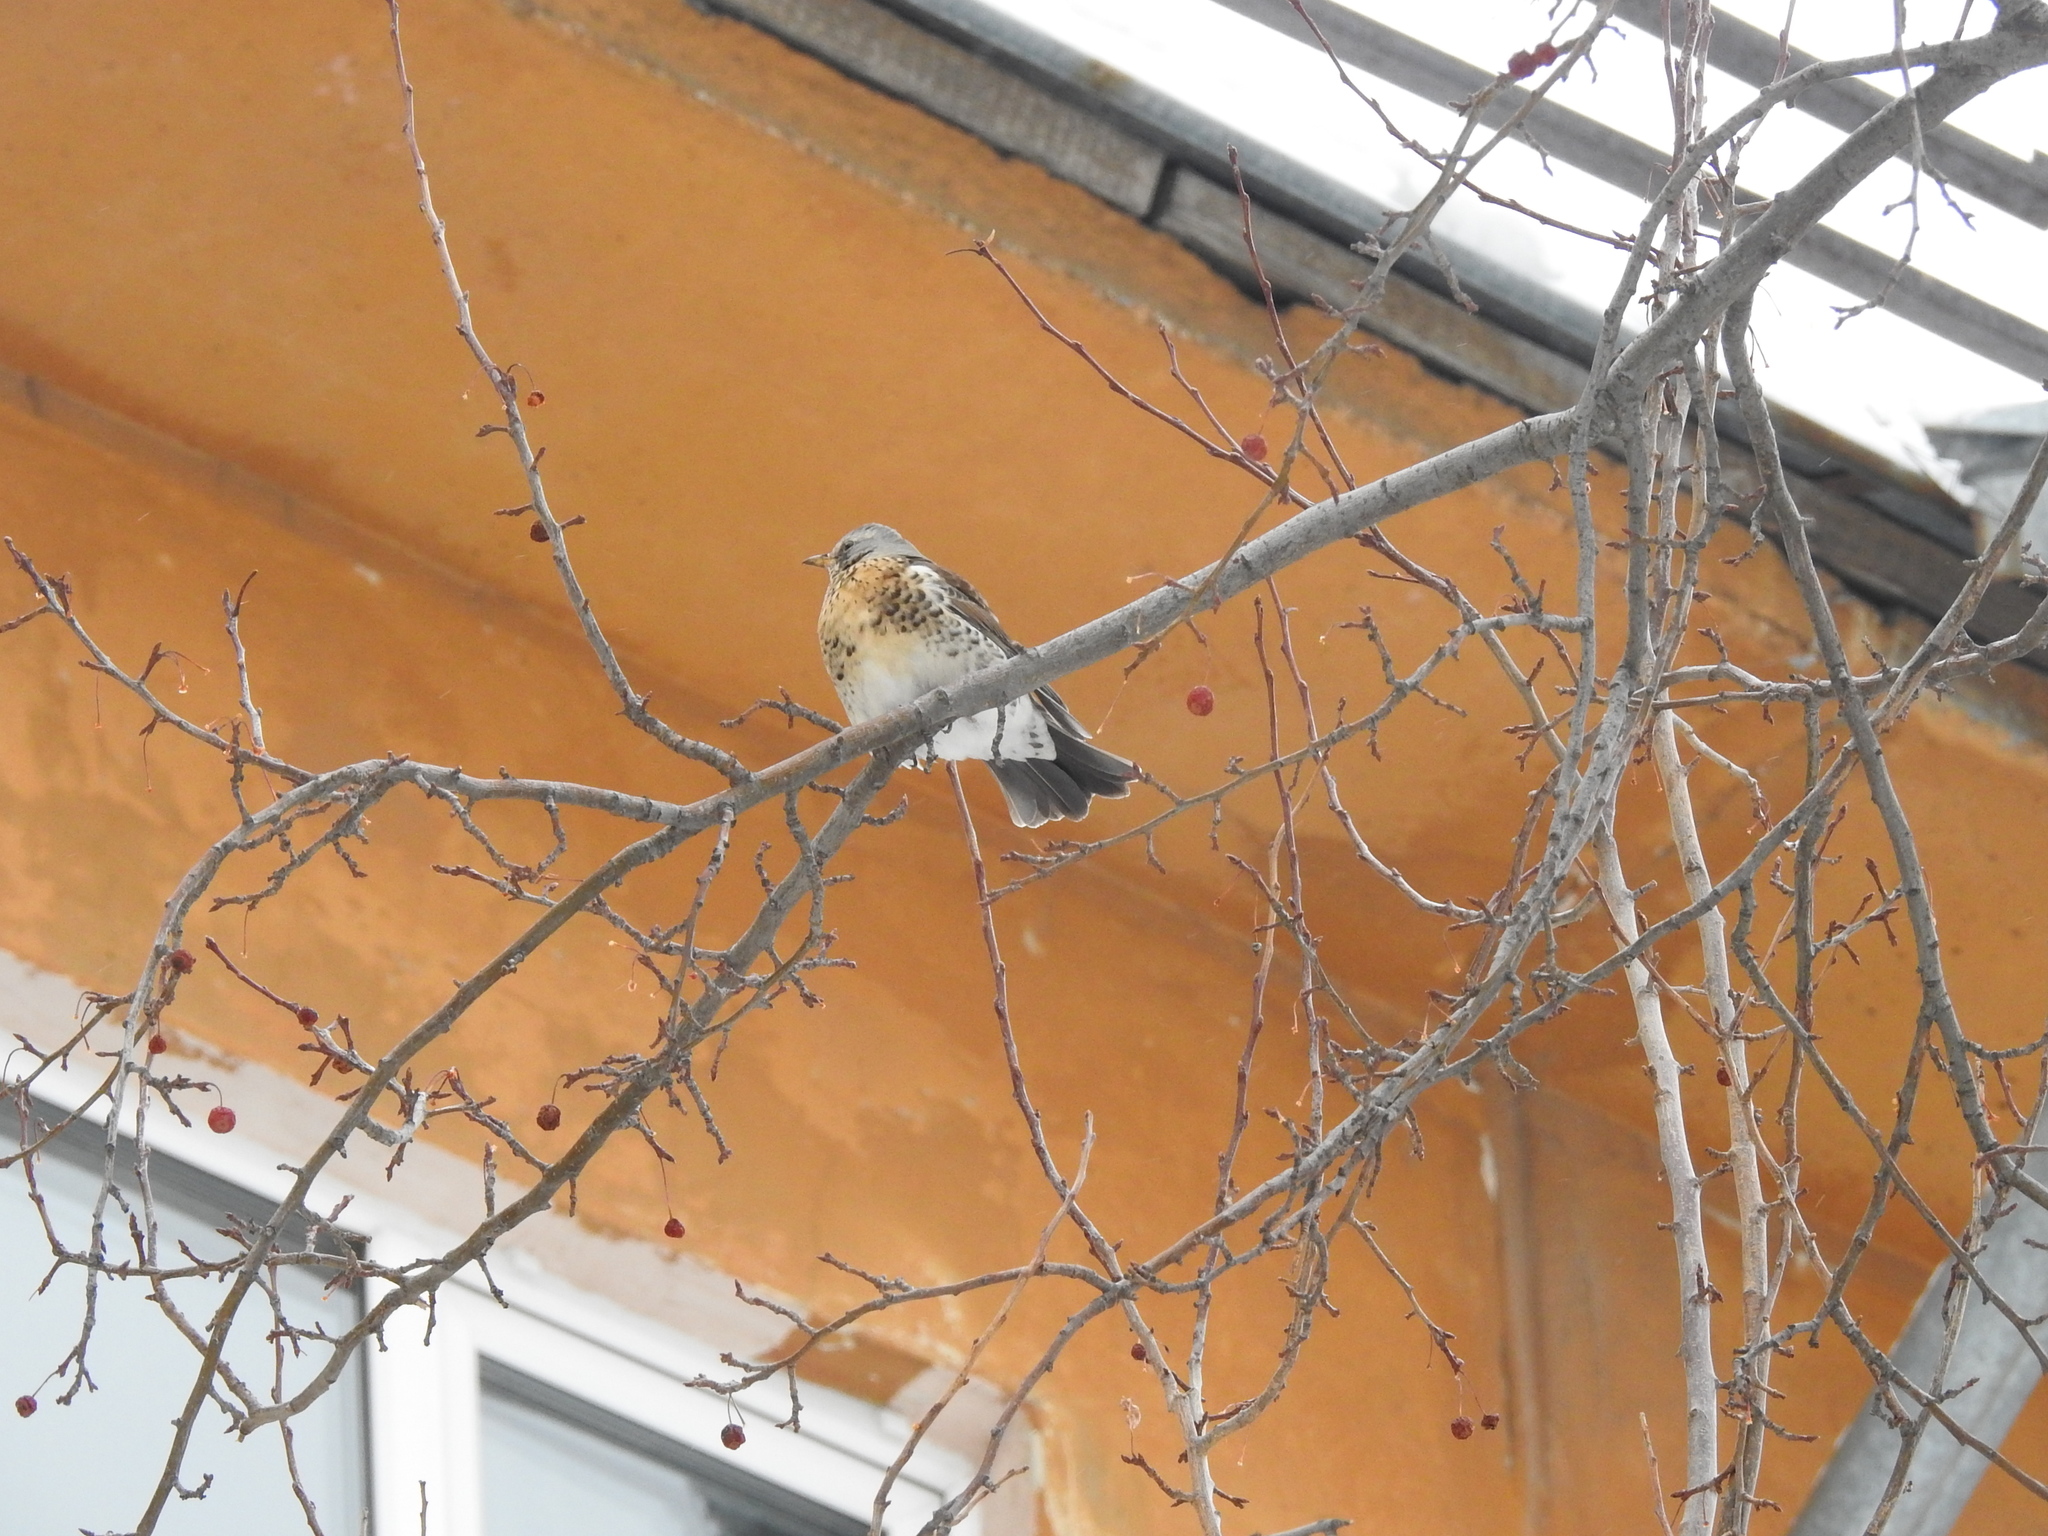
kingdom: Animalia
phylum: Chordata
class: Aves
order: Passeriformes
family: Turdidae
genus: Turdus
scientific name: Turdus pilaris
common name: Fieldfare
